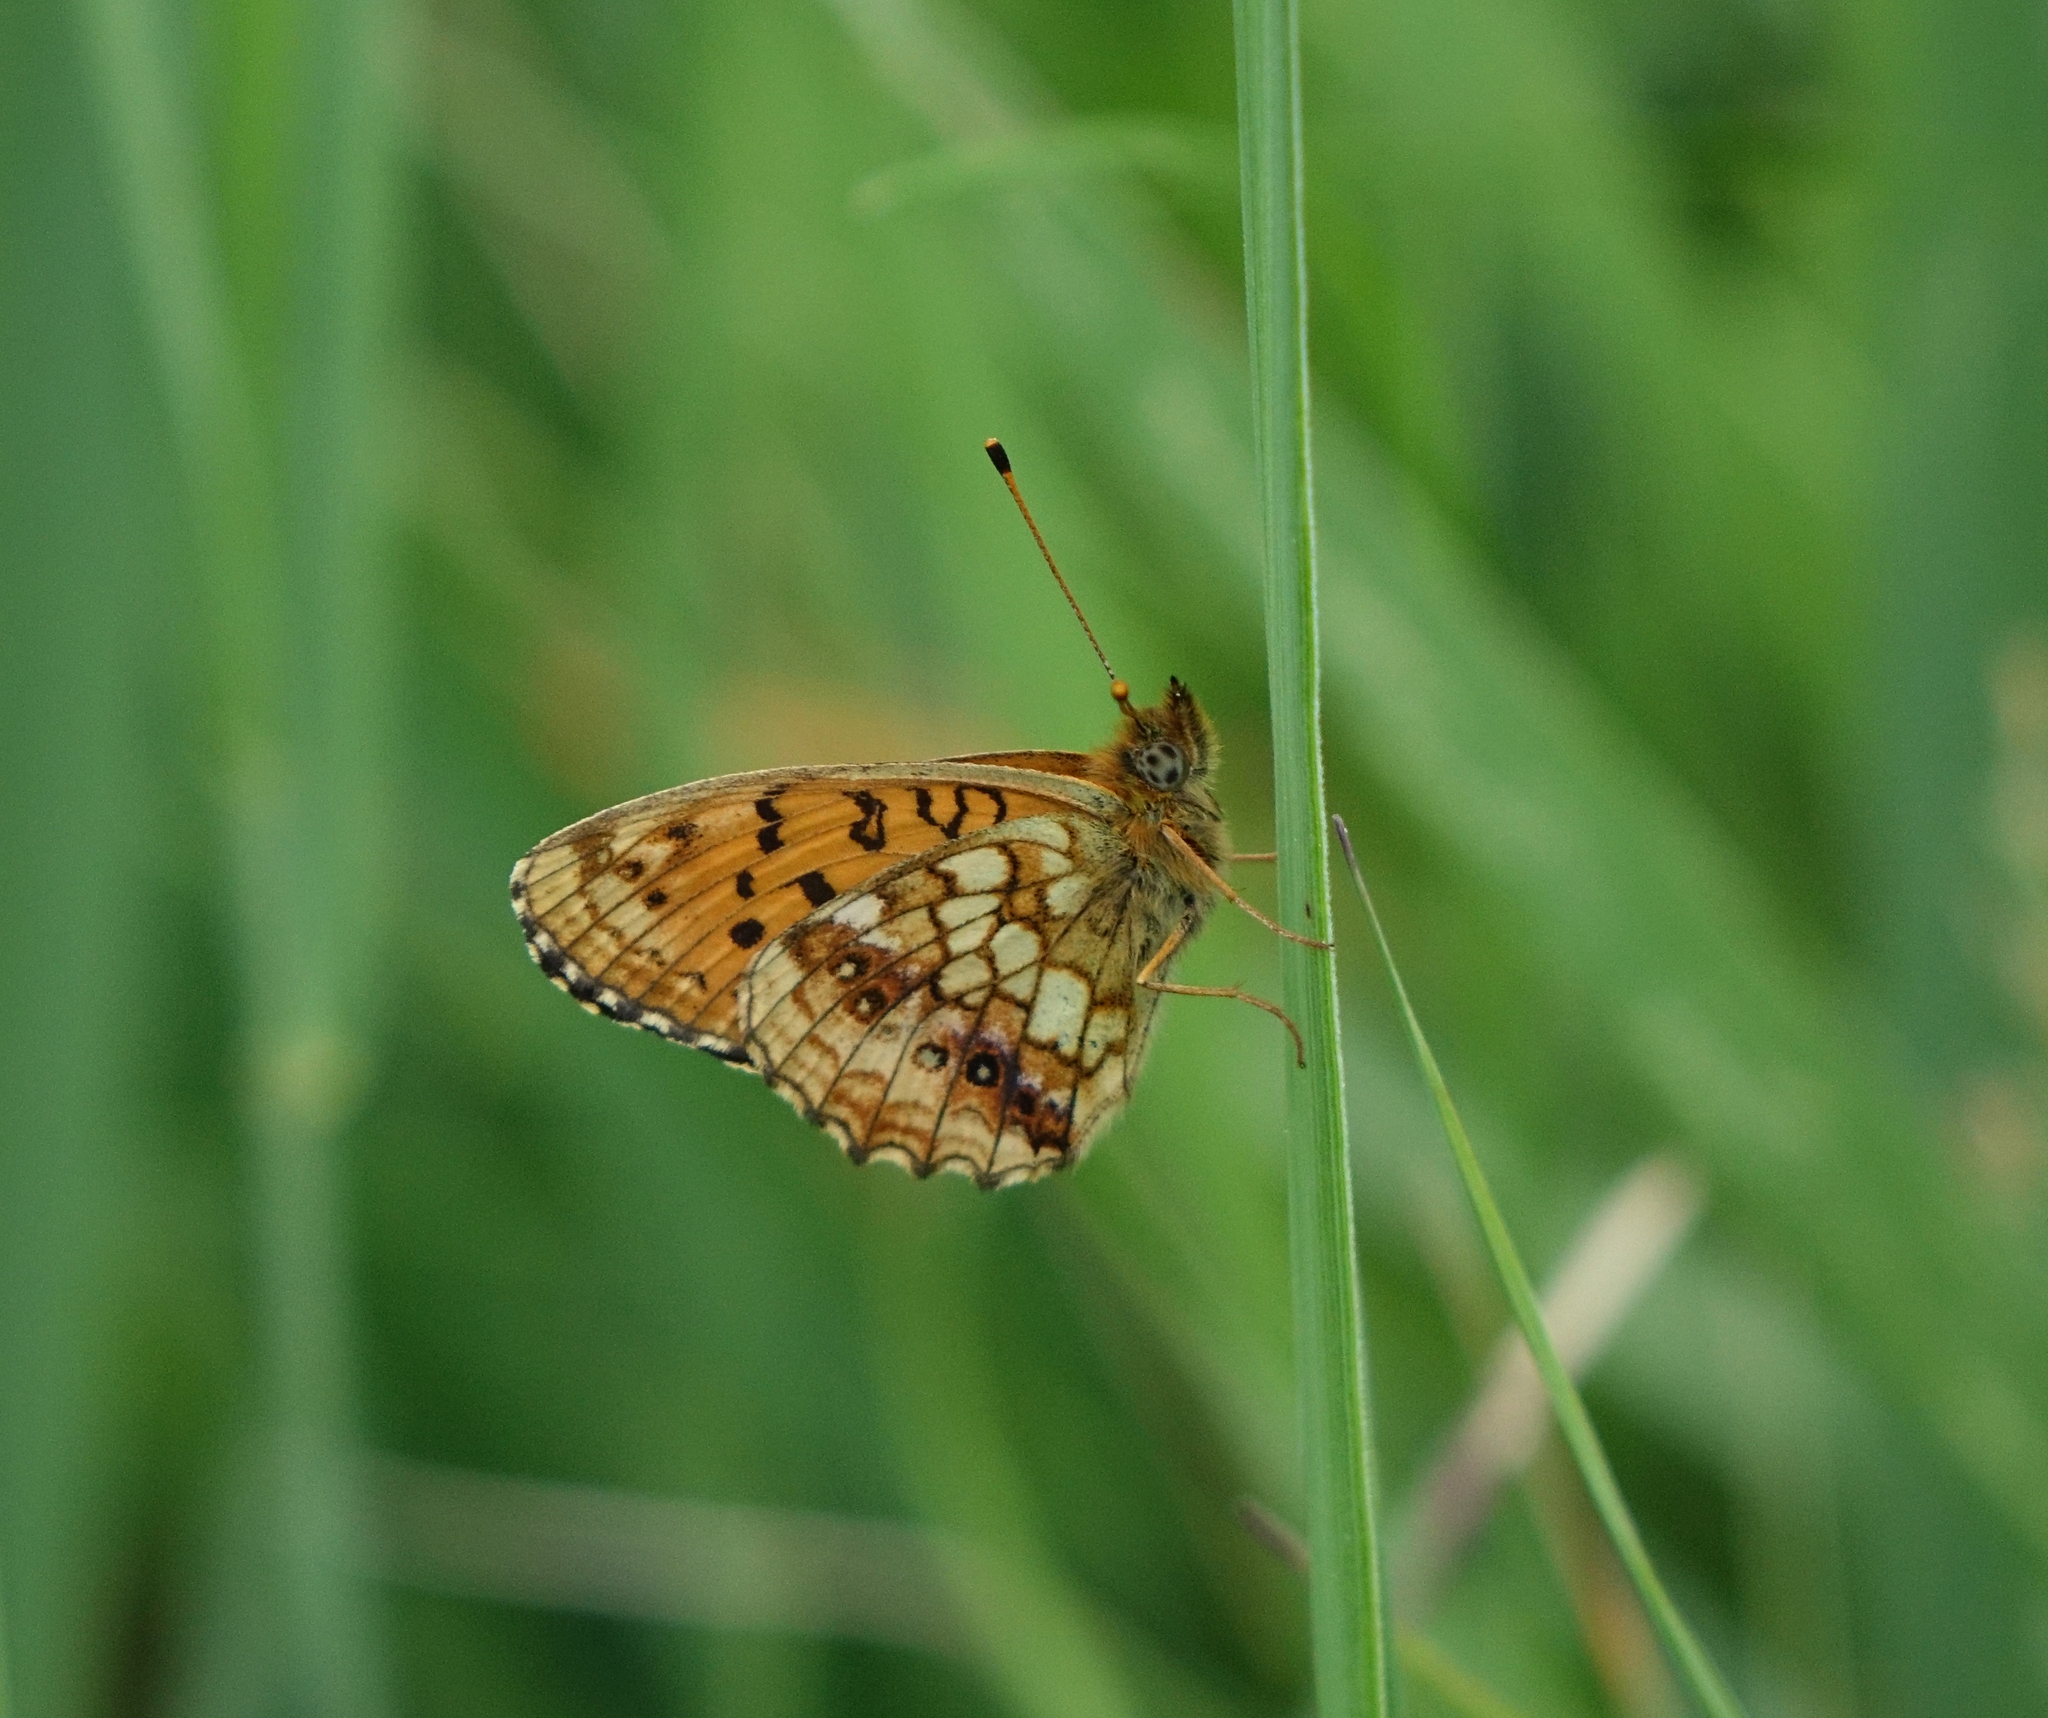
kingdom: Animalia
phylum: Arthropoda
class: Insecta
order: Lepidoptera
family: Nymphalidae
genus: Brenthis
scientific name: Brenthis ino
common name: Lesser marbled fritillary
